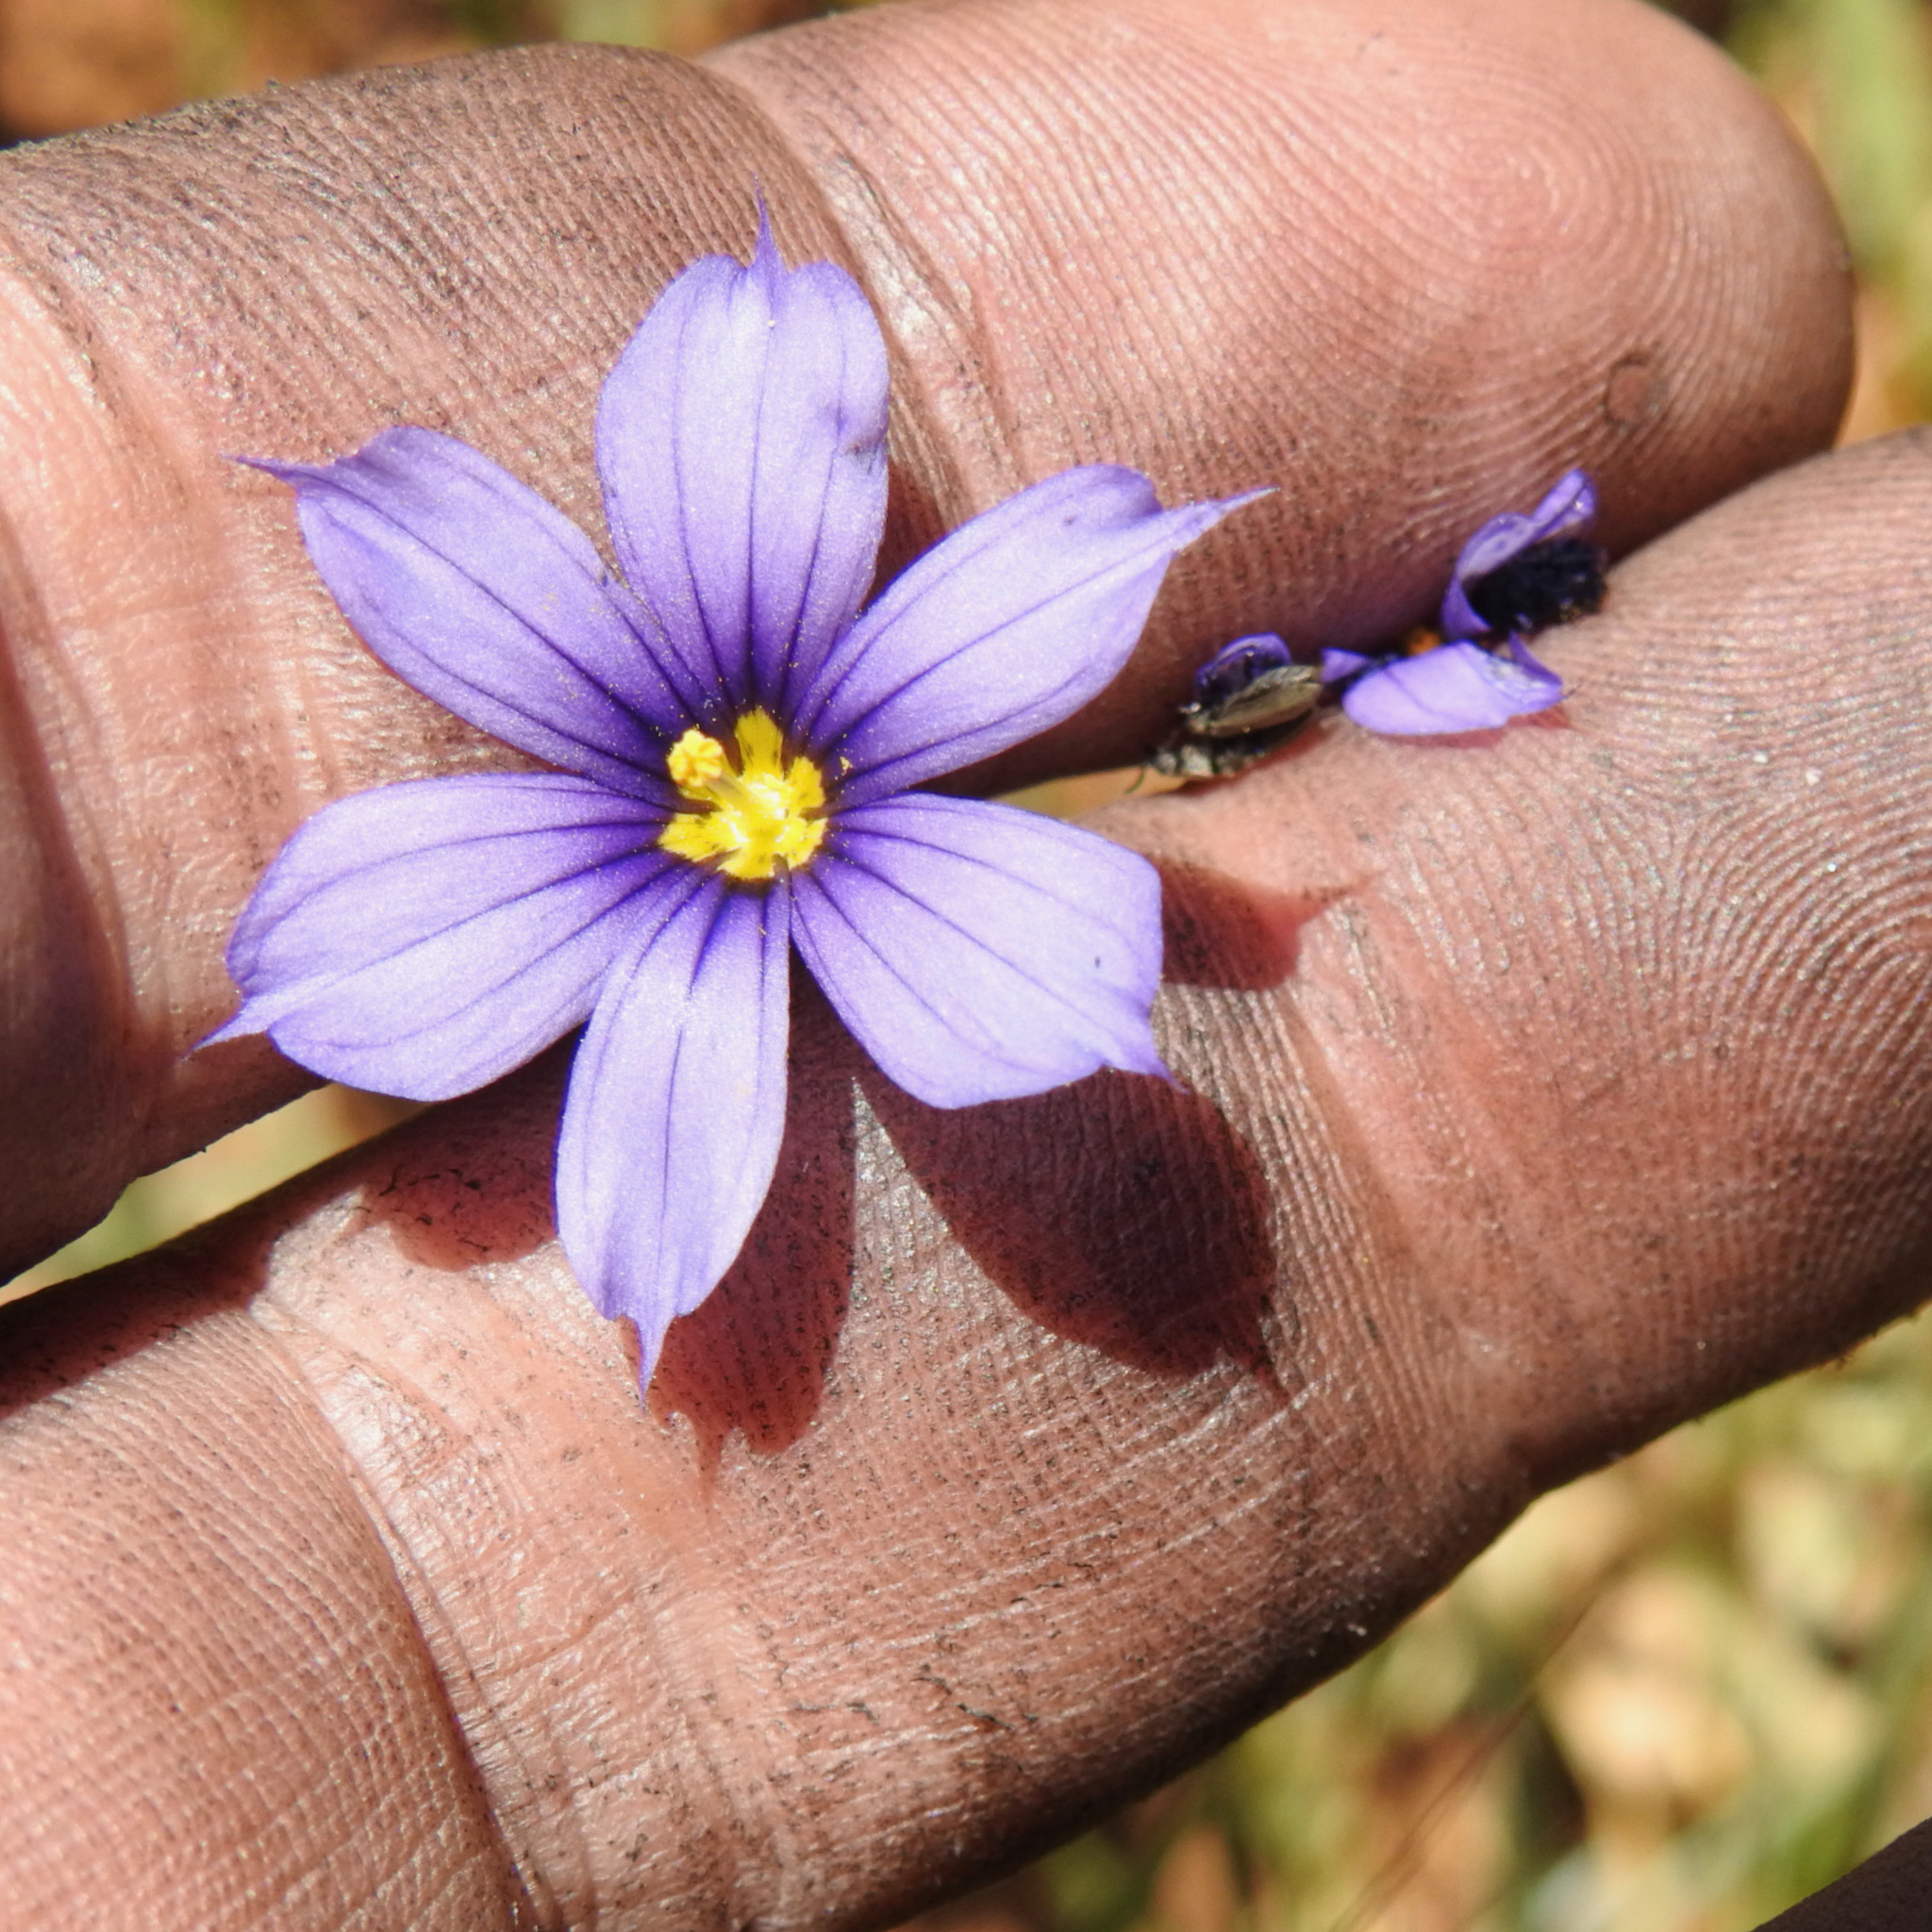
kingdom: Plantae
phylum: Tracheophyta
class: Liliopsida
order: Asparagales
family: Iridaceae
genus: Sisyrinchium
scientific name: Sisyrinchium bellum
